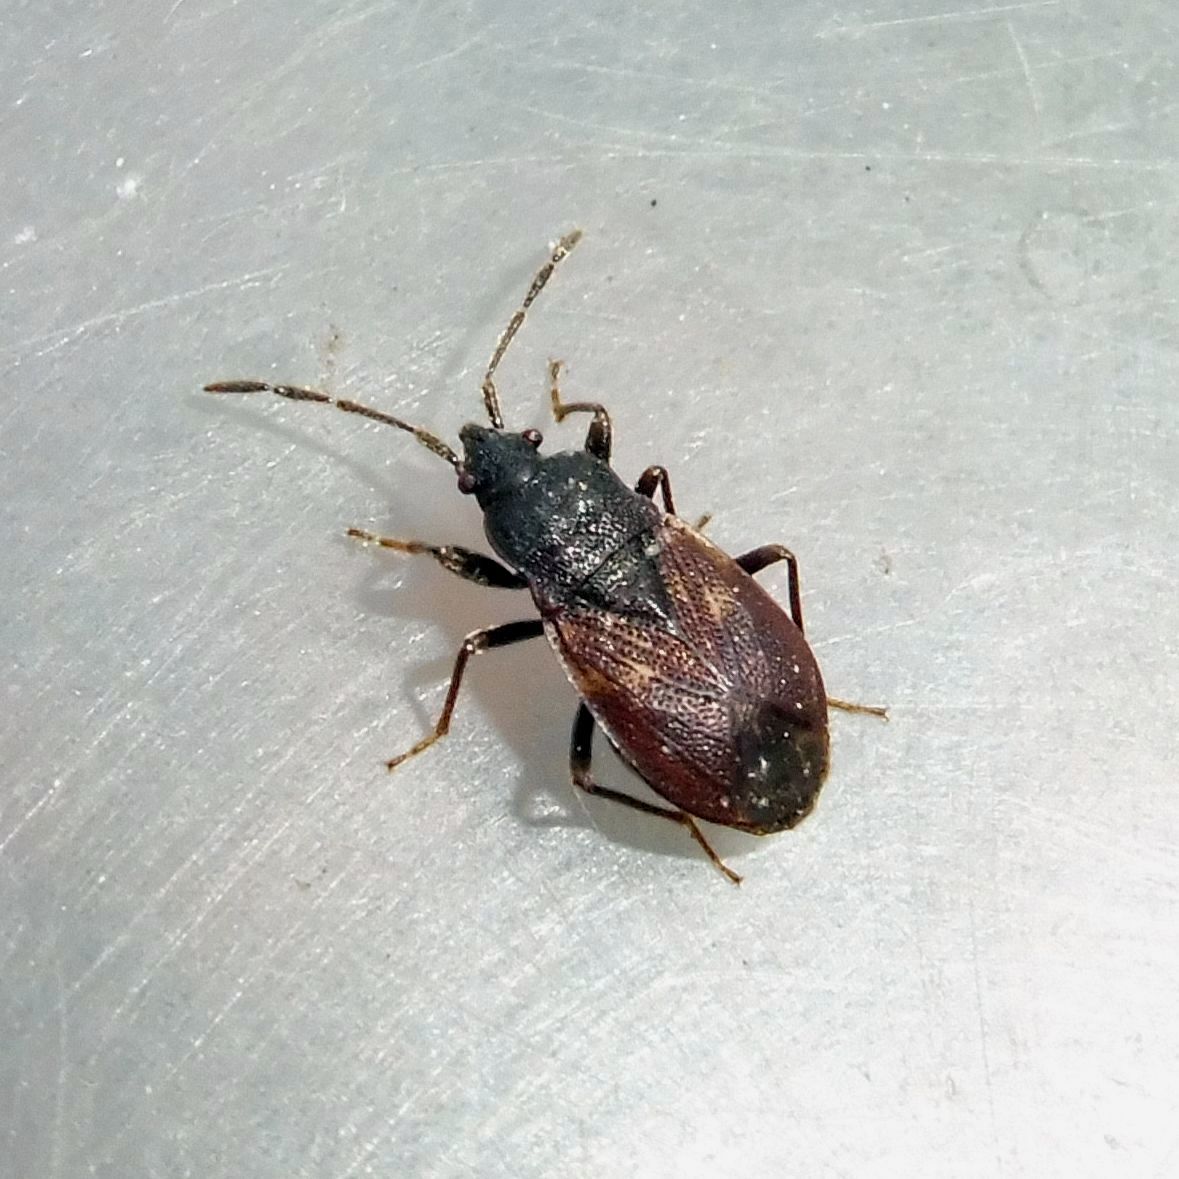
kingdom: Animalia
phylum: Arthropoda
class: Insecta
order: Hemiptera
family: Rhyparochromidae
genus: Drymus
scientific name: Drymus brunneus
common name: Seed bug
